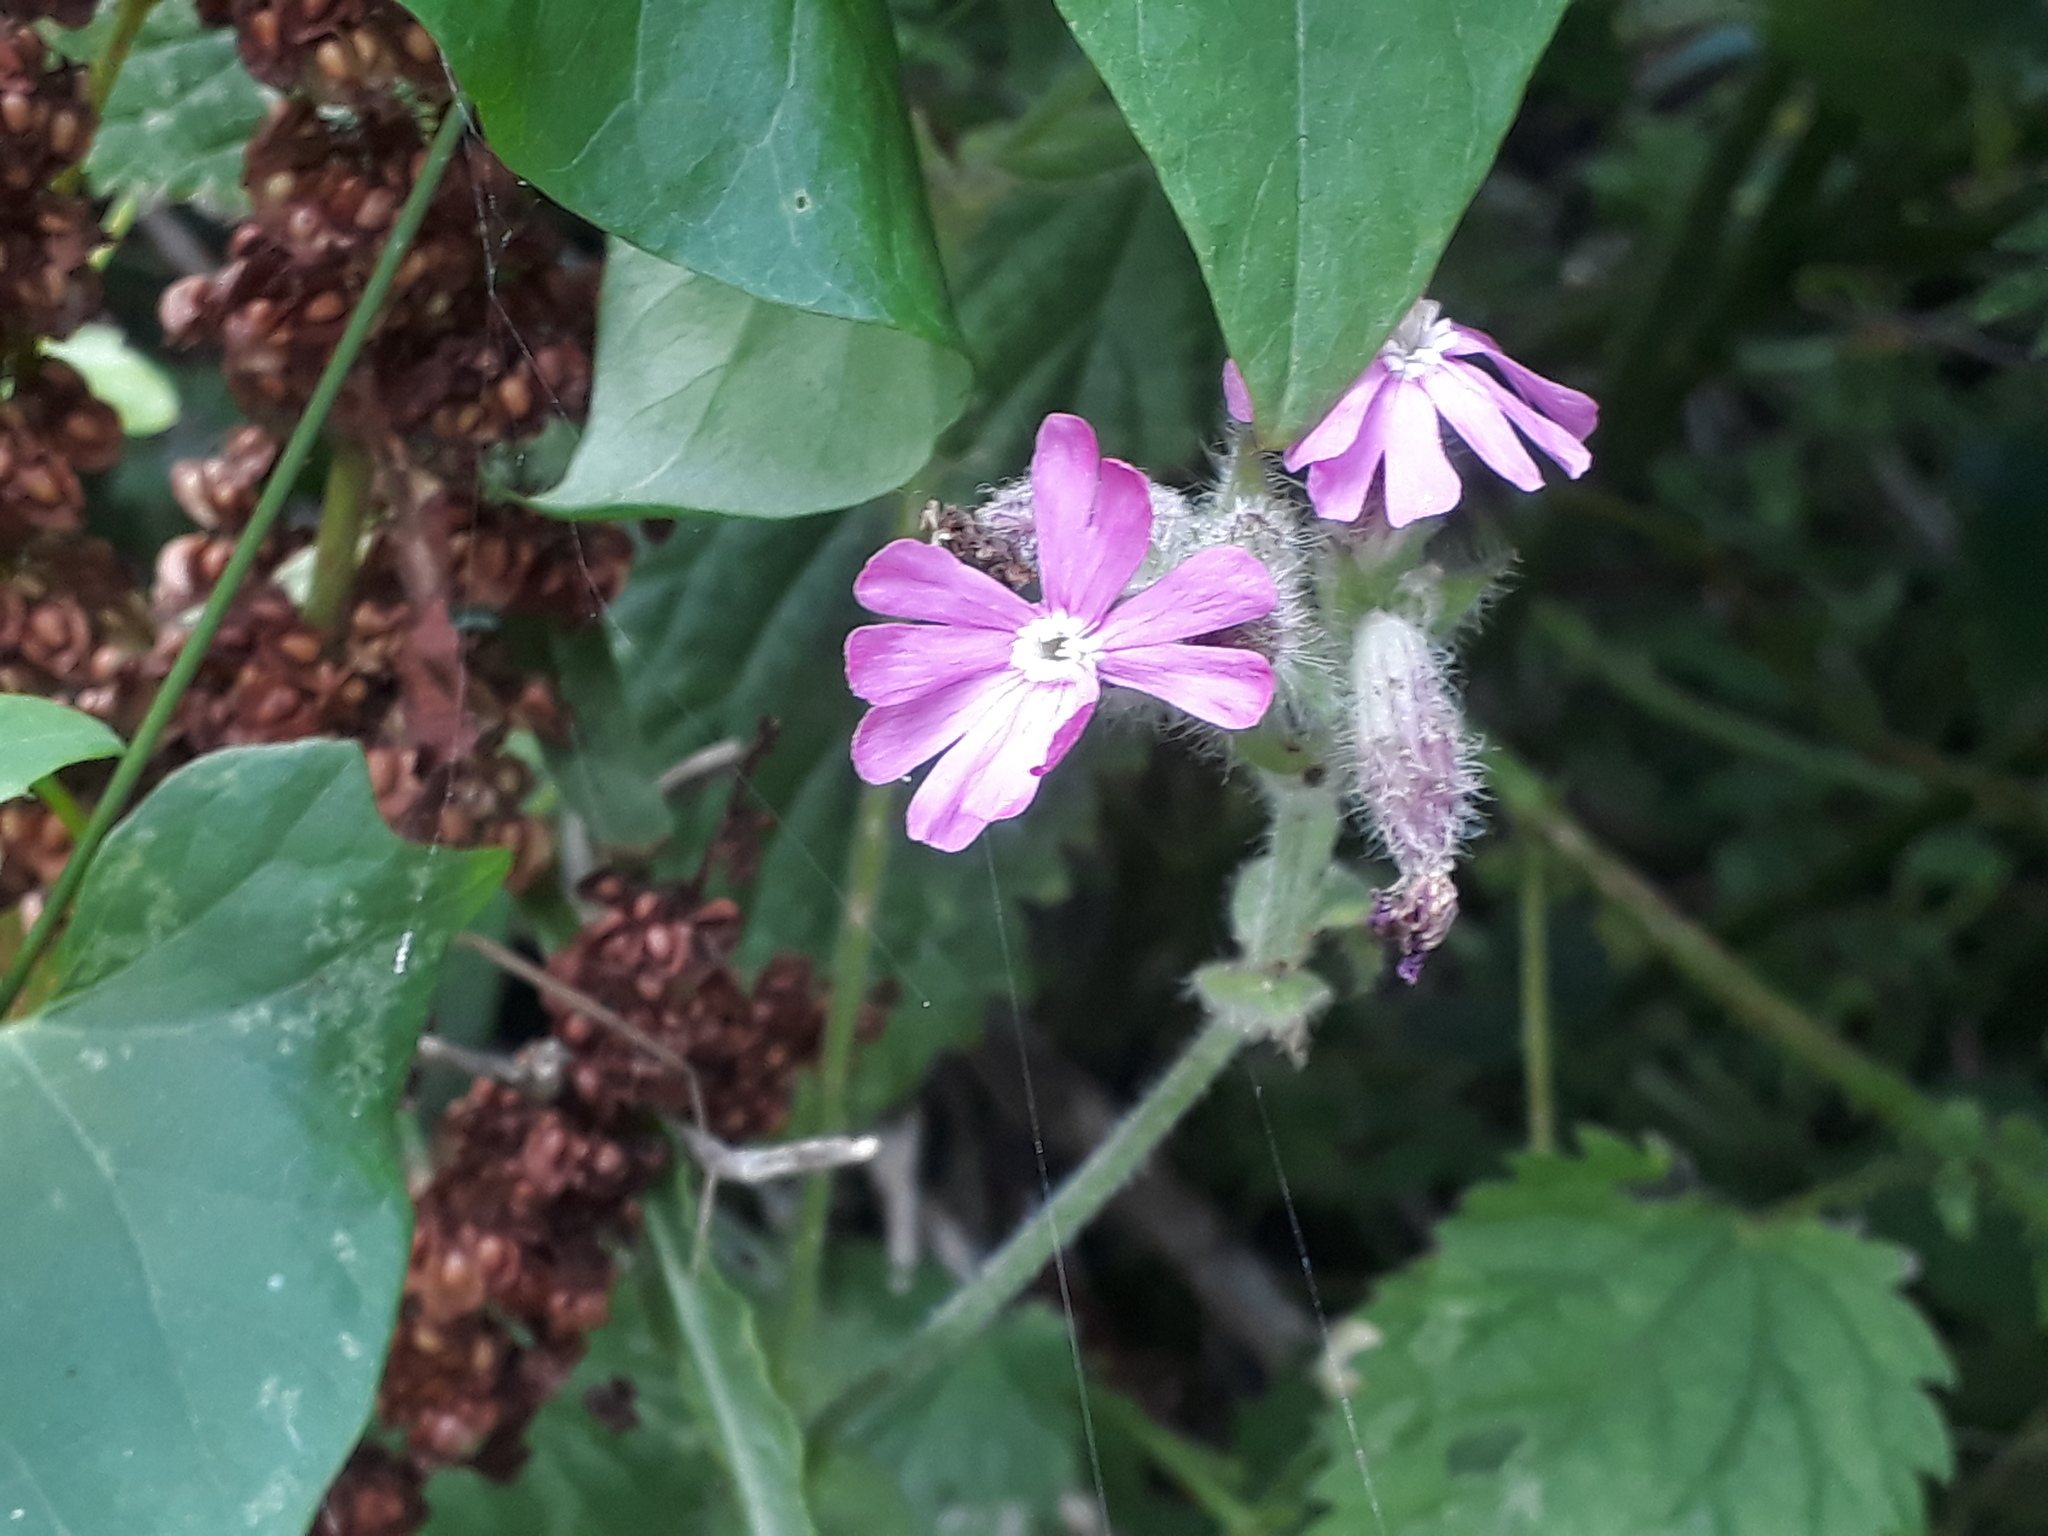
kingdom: Plantae
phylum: Tracheophyta
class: Magnoliopsida
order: Caryophyllales
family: Caryophyllaceae
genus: Silene
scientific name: Silene dioica
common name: Red campion
